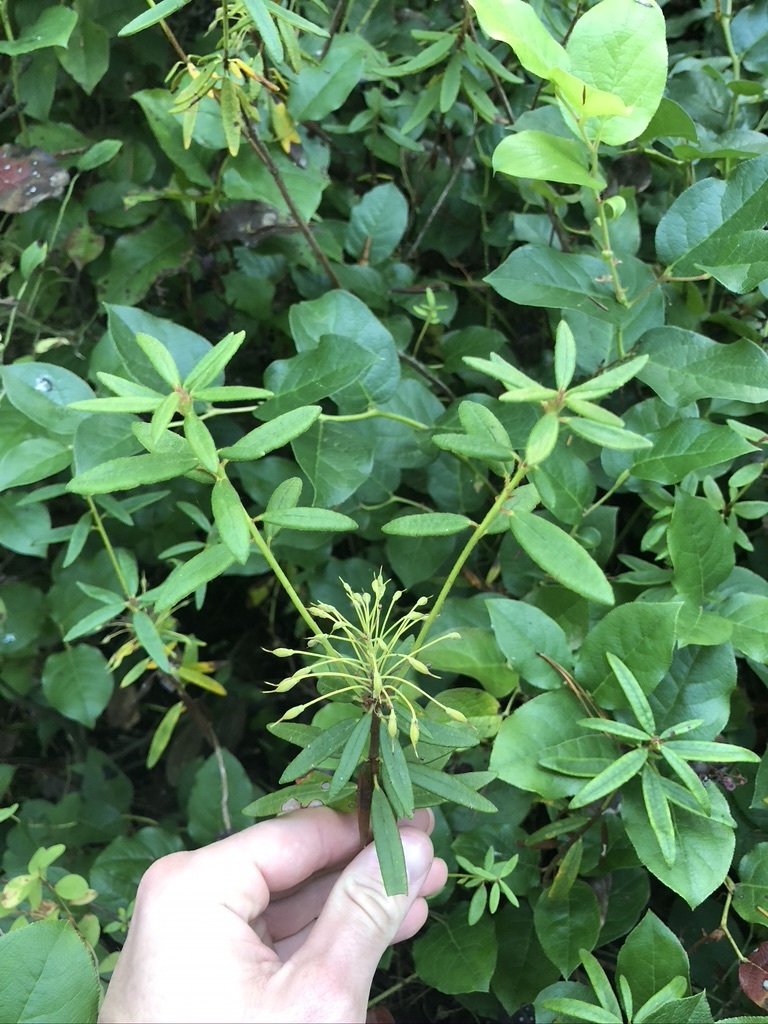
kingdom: Plantae
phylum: Tracheophyta
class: Magnoliopsida
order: Ericales
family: Ericaceae
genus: Rhododendron
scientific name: Rhododendron groenlandicum
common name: Bog labrador tea
